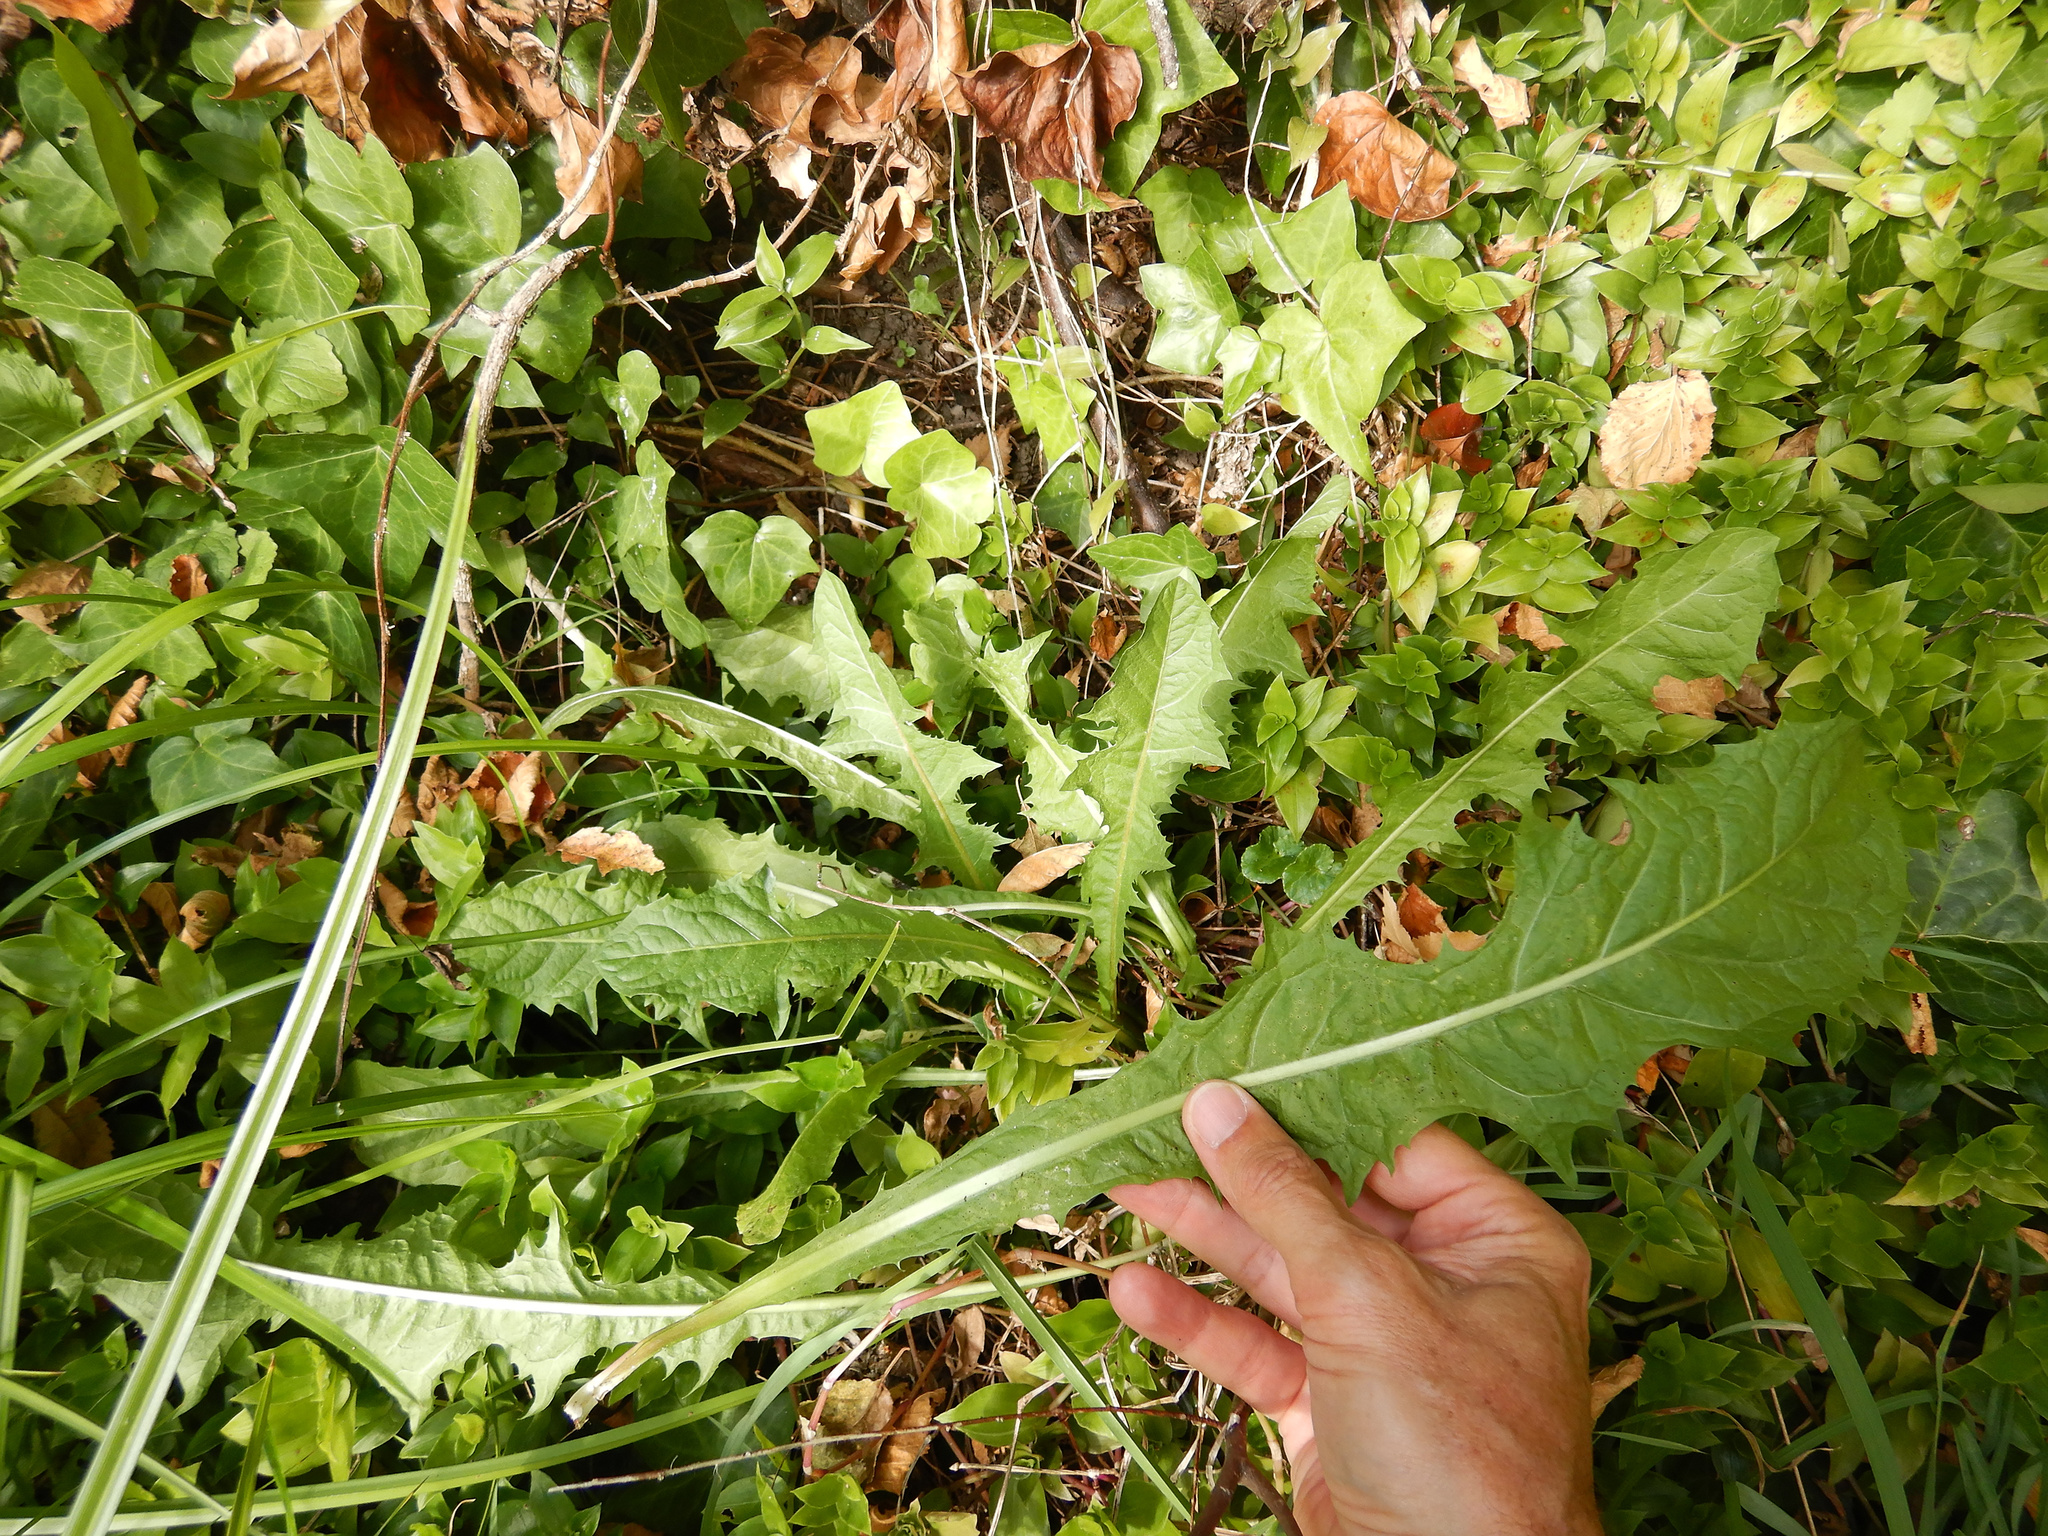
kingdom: Plantae
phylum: Tracheophyta
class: Magnoliopsida
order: Asterales
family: Asteraceae
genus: Taraxacum
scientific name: Taraxacum officinale
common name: Common dandelion
